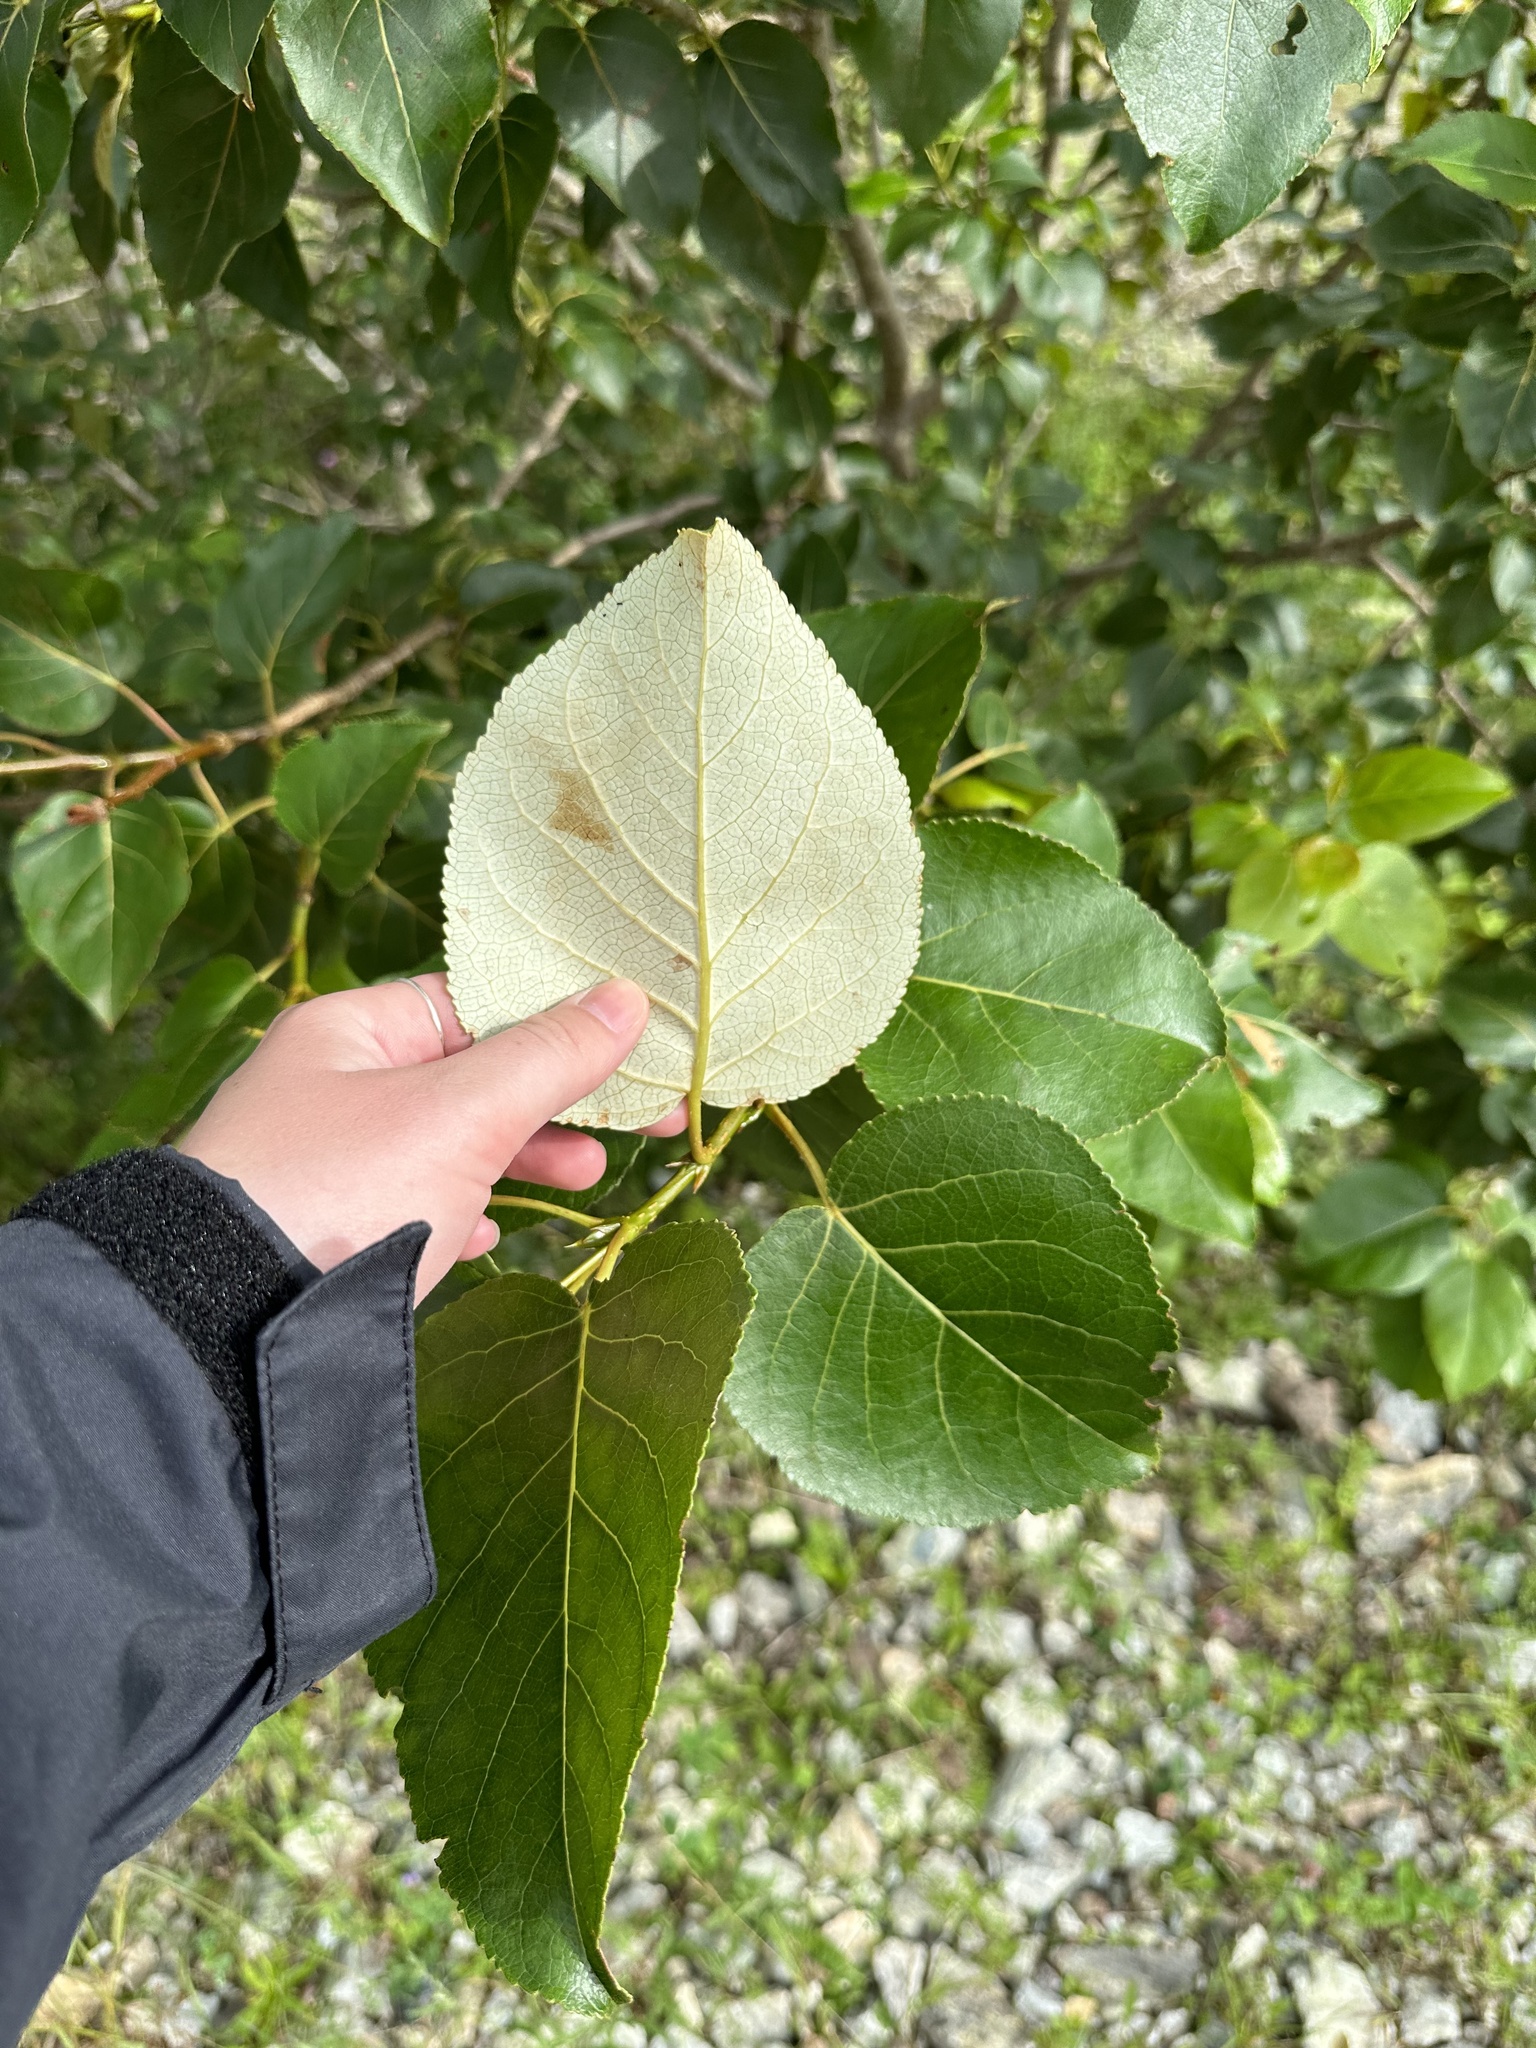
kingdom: Plantae
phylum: Tracheophyta
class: Magnoliopsida
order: Malpighiales
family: Salicaceae
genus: Populus
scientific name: Populus balsamifera
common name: Balsam poplar
